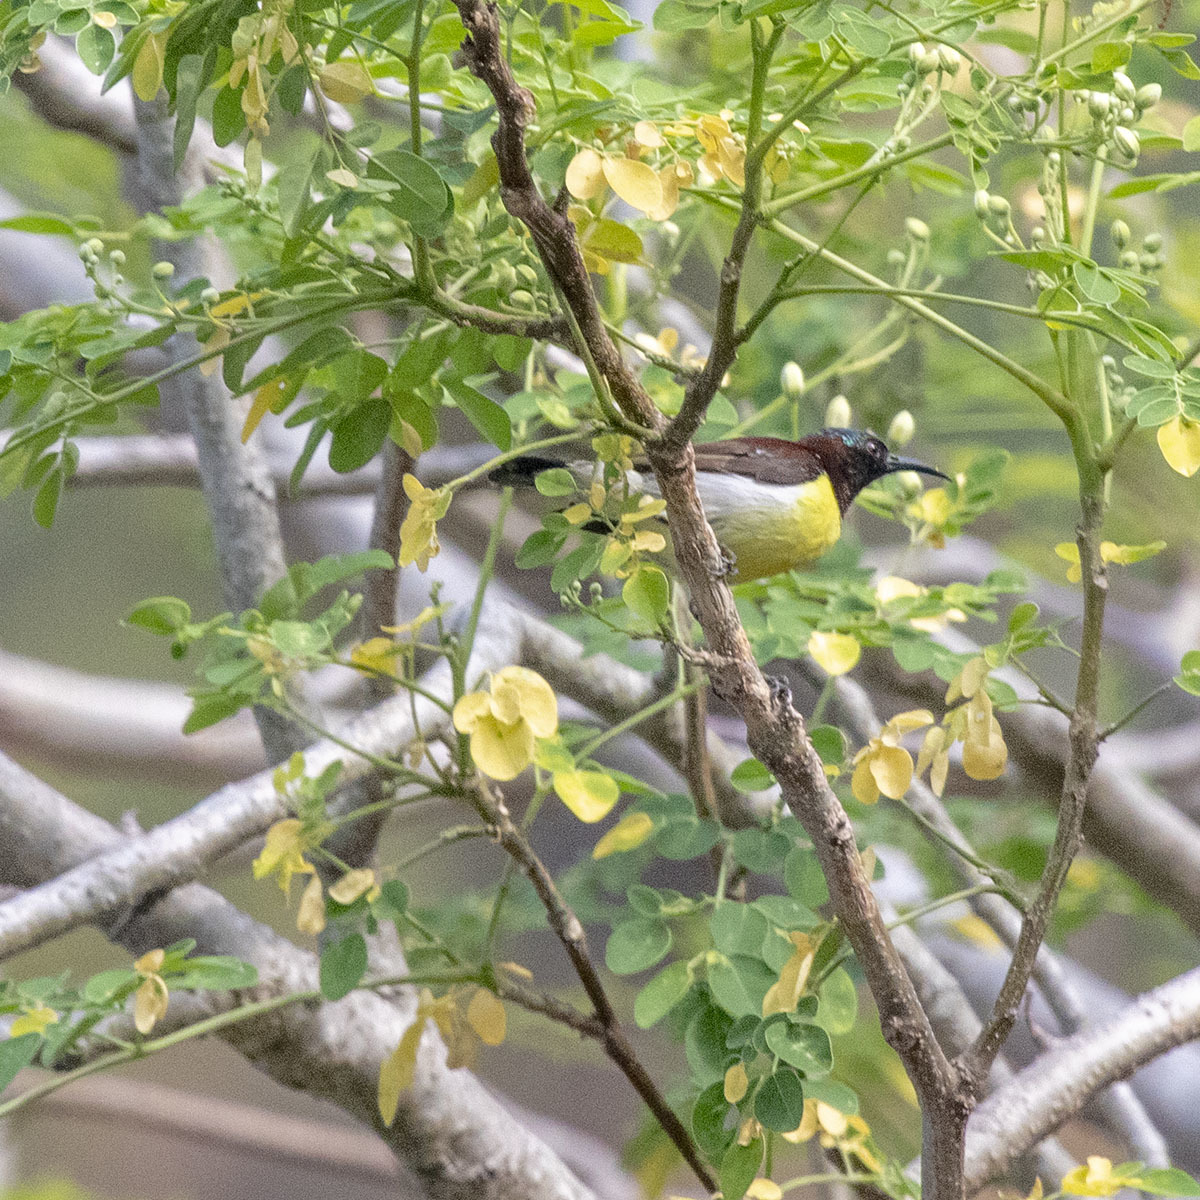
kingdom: Animalia
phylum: Chordata
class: Aves
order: Passeriformes
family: Nectariniidae
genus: Leptocoma
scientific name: Leptocoma zeylonica
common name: Purple-rumped sunbird
